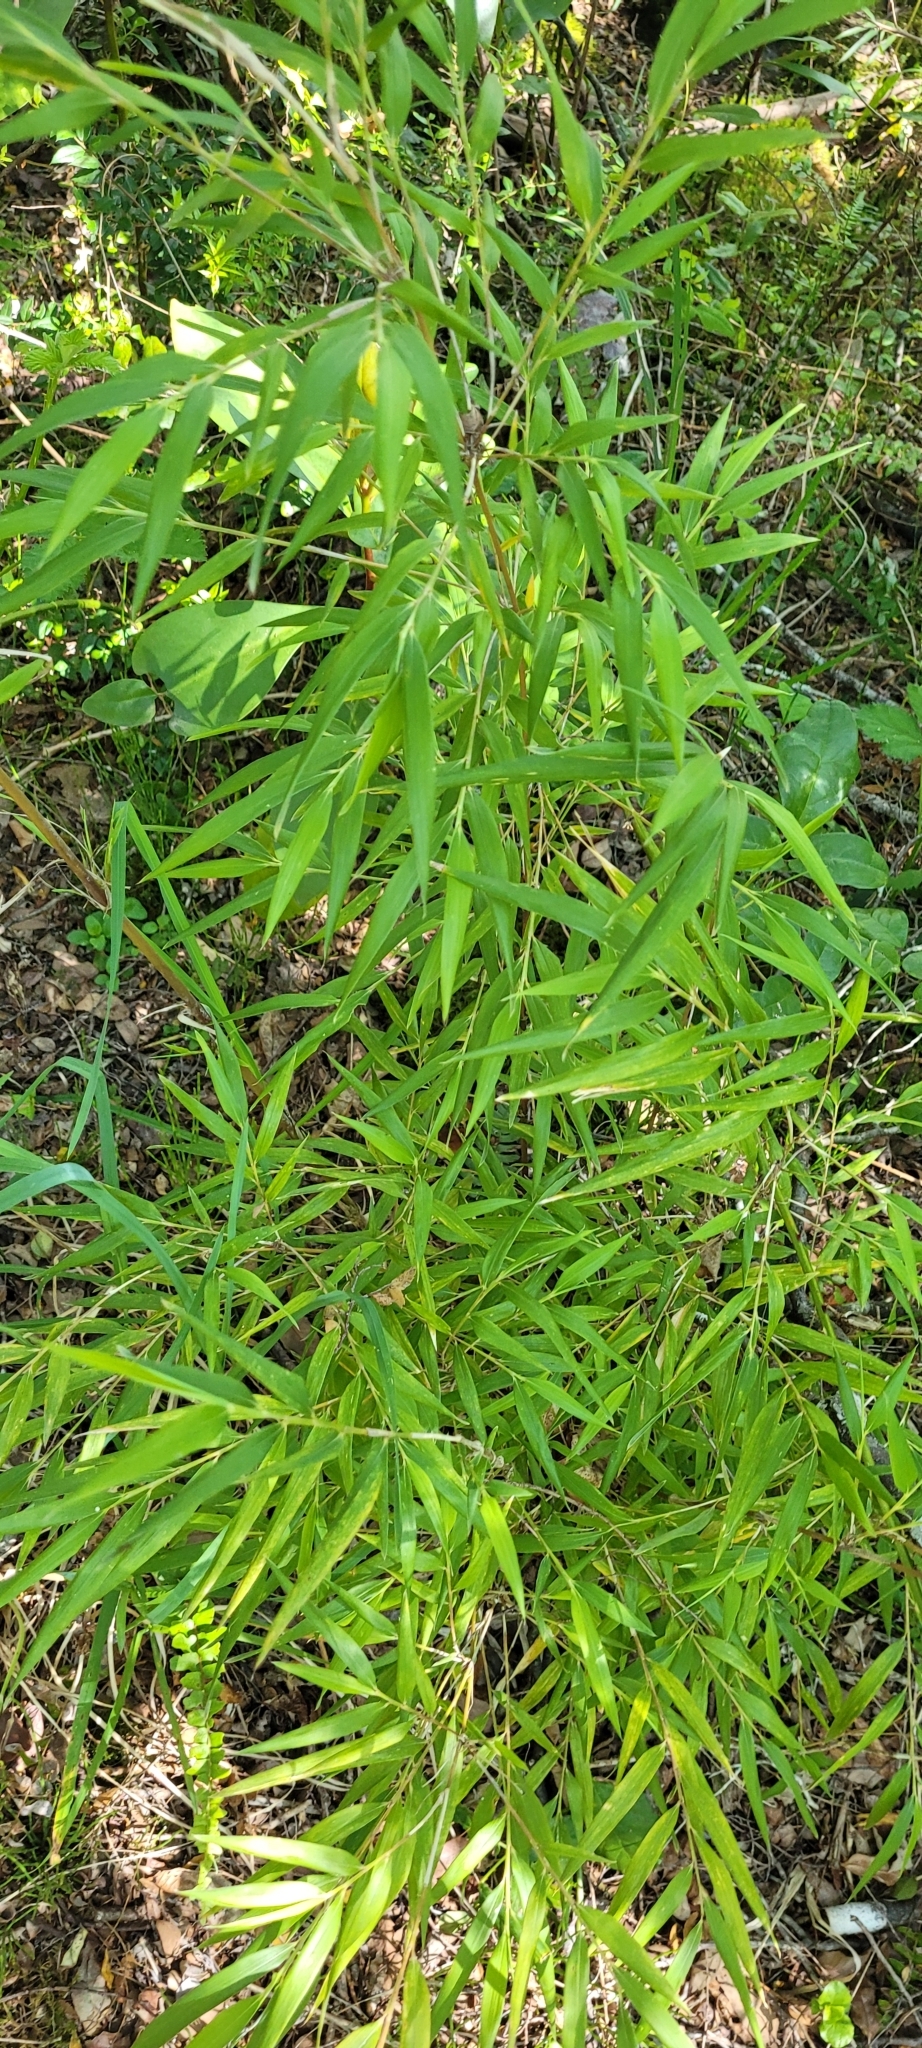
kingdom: Plantae
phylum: Tracheophyta
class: Liliopsida
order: Poales
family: Poaceae
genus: Chusquea
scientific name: Chusquea quila
